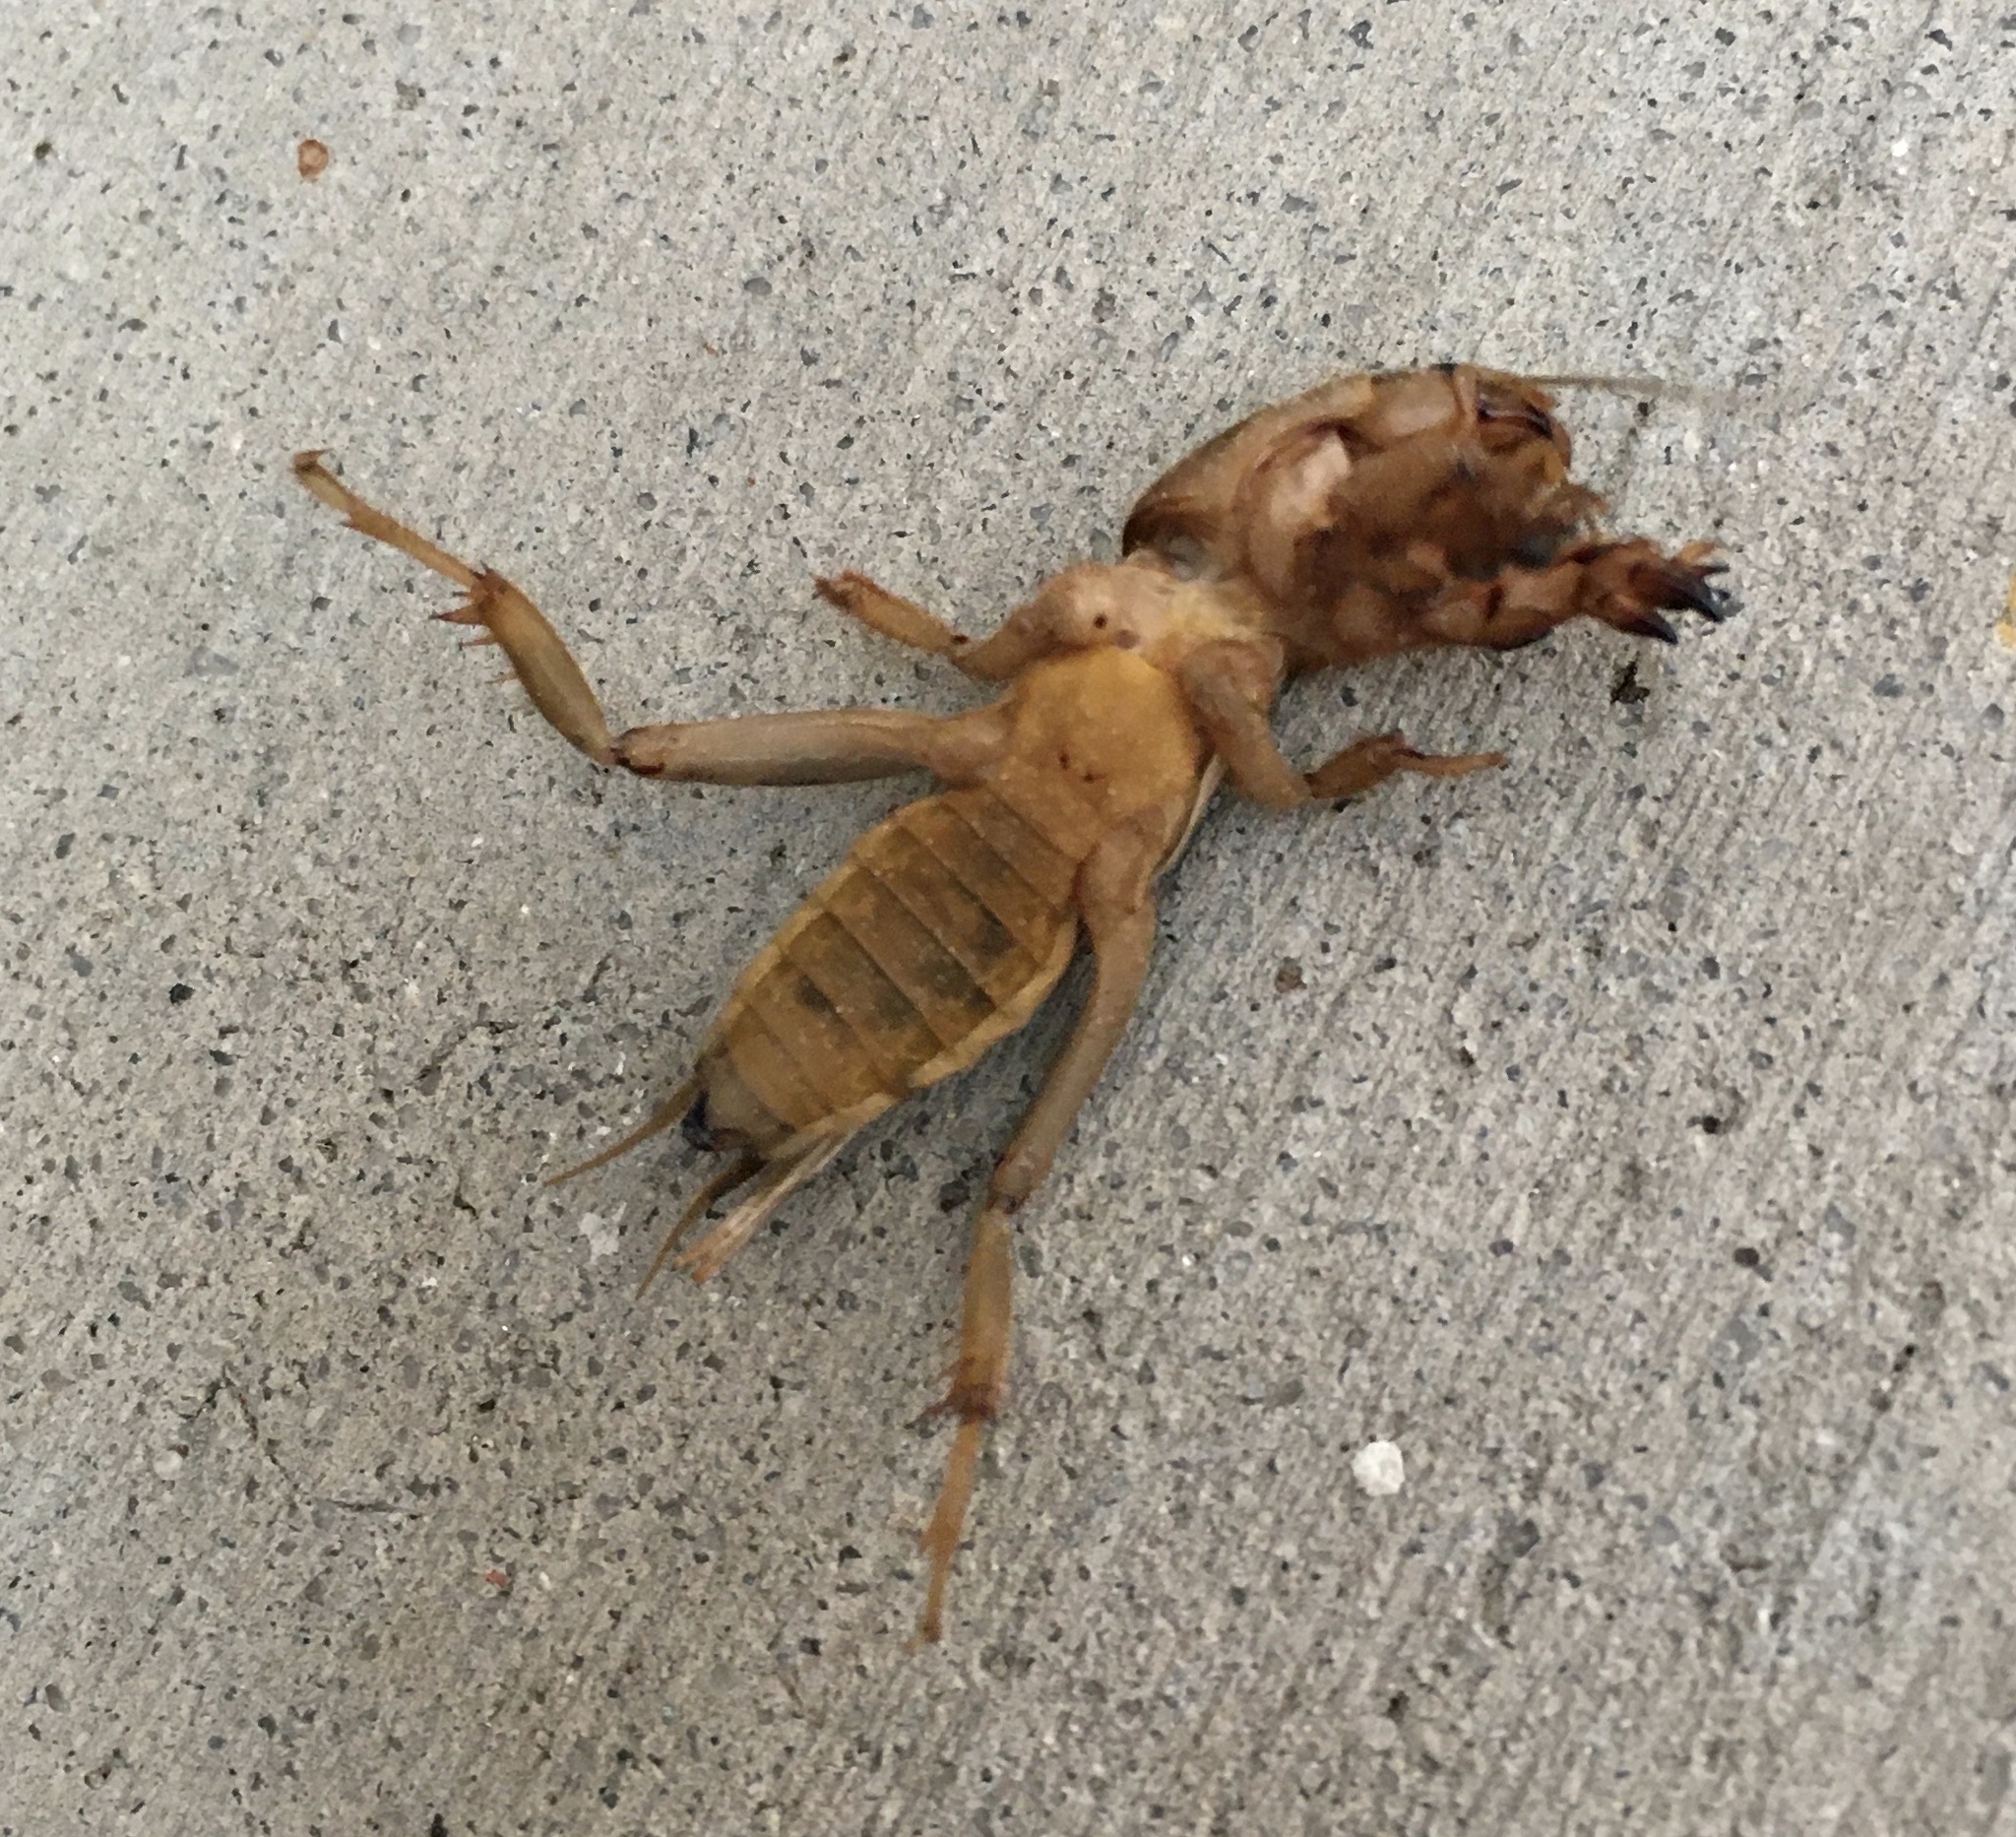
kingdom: Animalia
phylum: Arthropoda
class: Insecta
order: Orthoptera
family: Gryllotalpidae
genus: Neoscapteriscus
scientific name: Neoscapteriscus vicinus
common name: Tawny mole cricket
